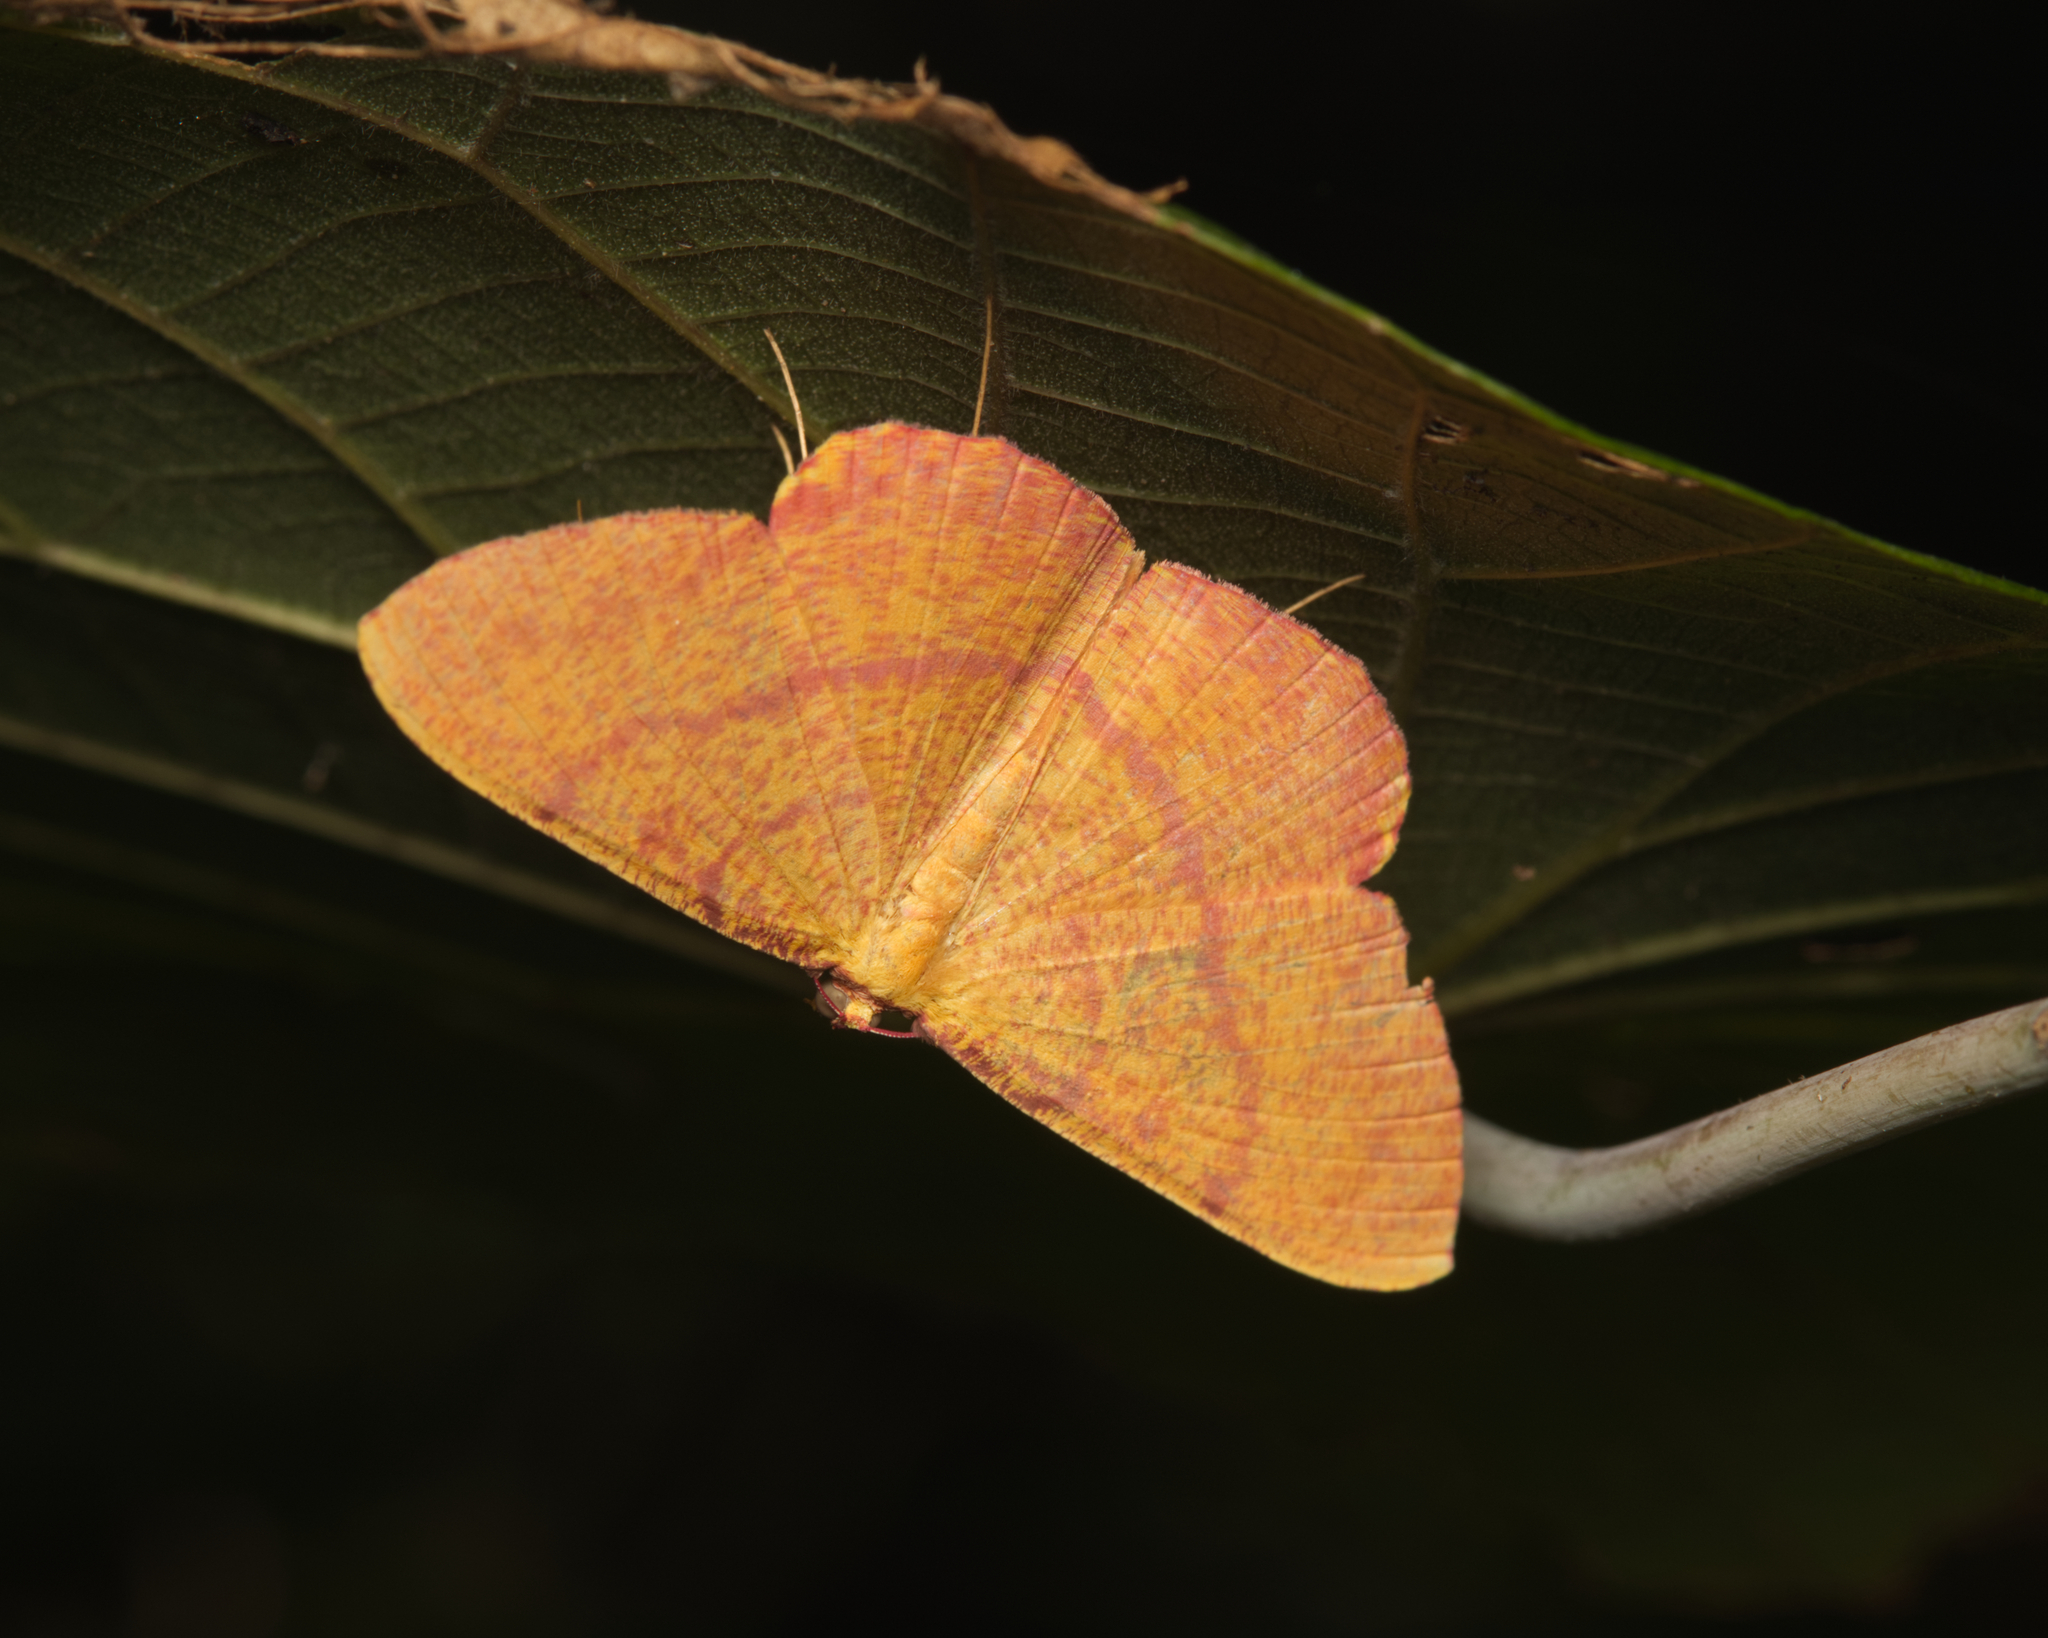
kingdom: Animalia
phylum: Arthropoda
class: Insecta
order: Lepidoptera
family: Geometridae
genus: Eumelea
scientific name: Eumelea rosalia
